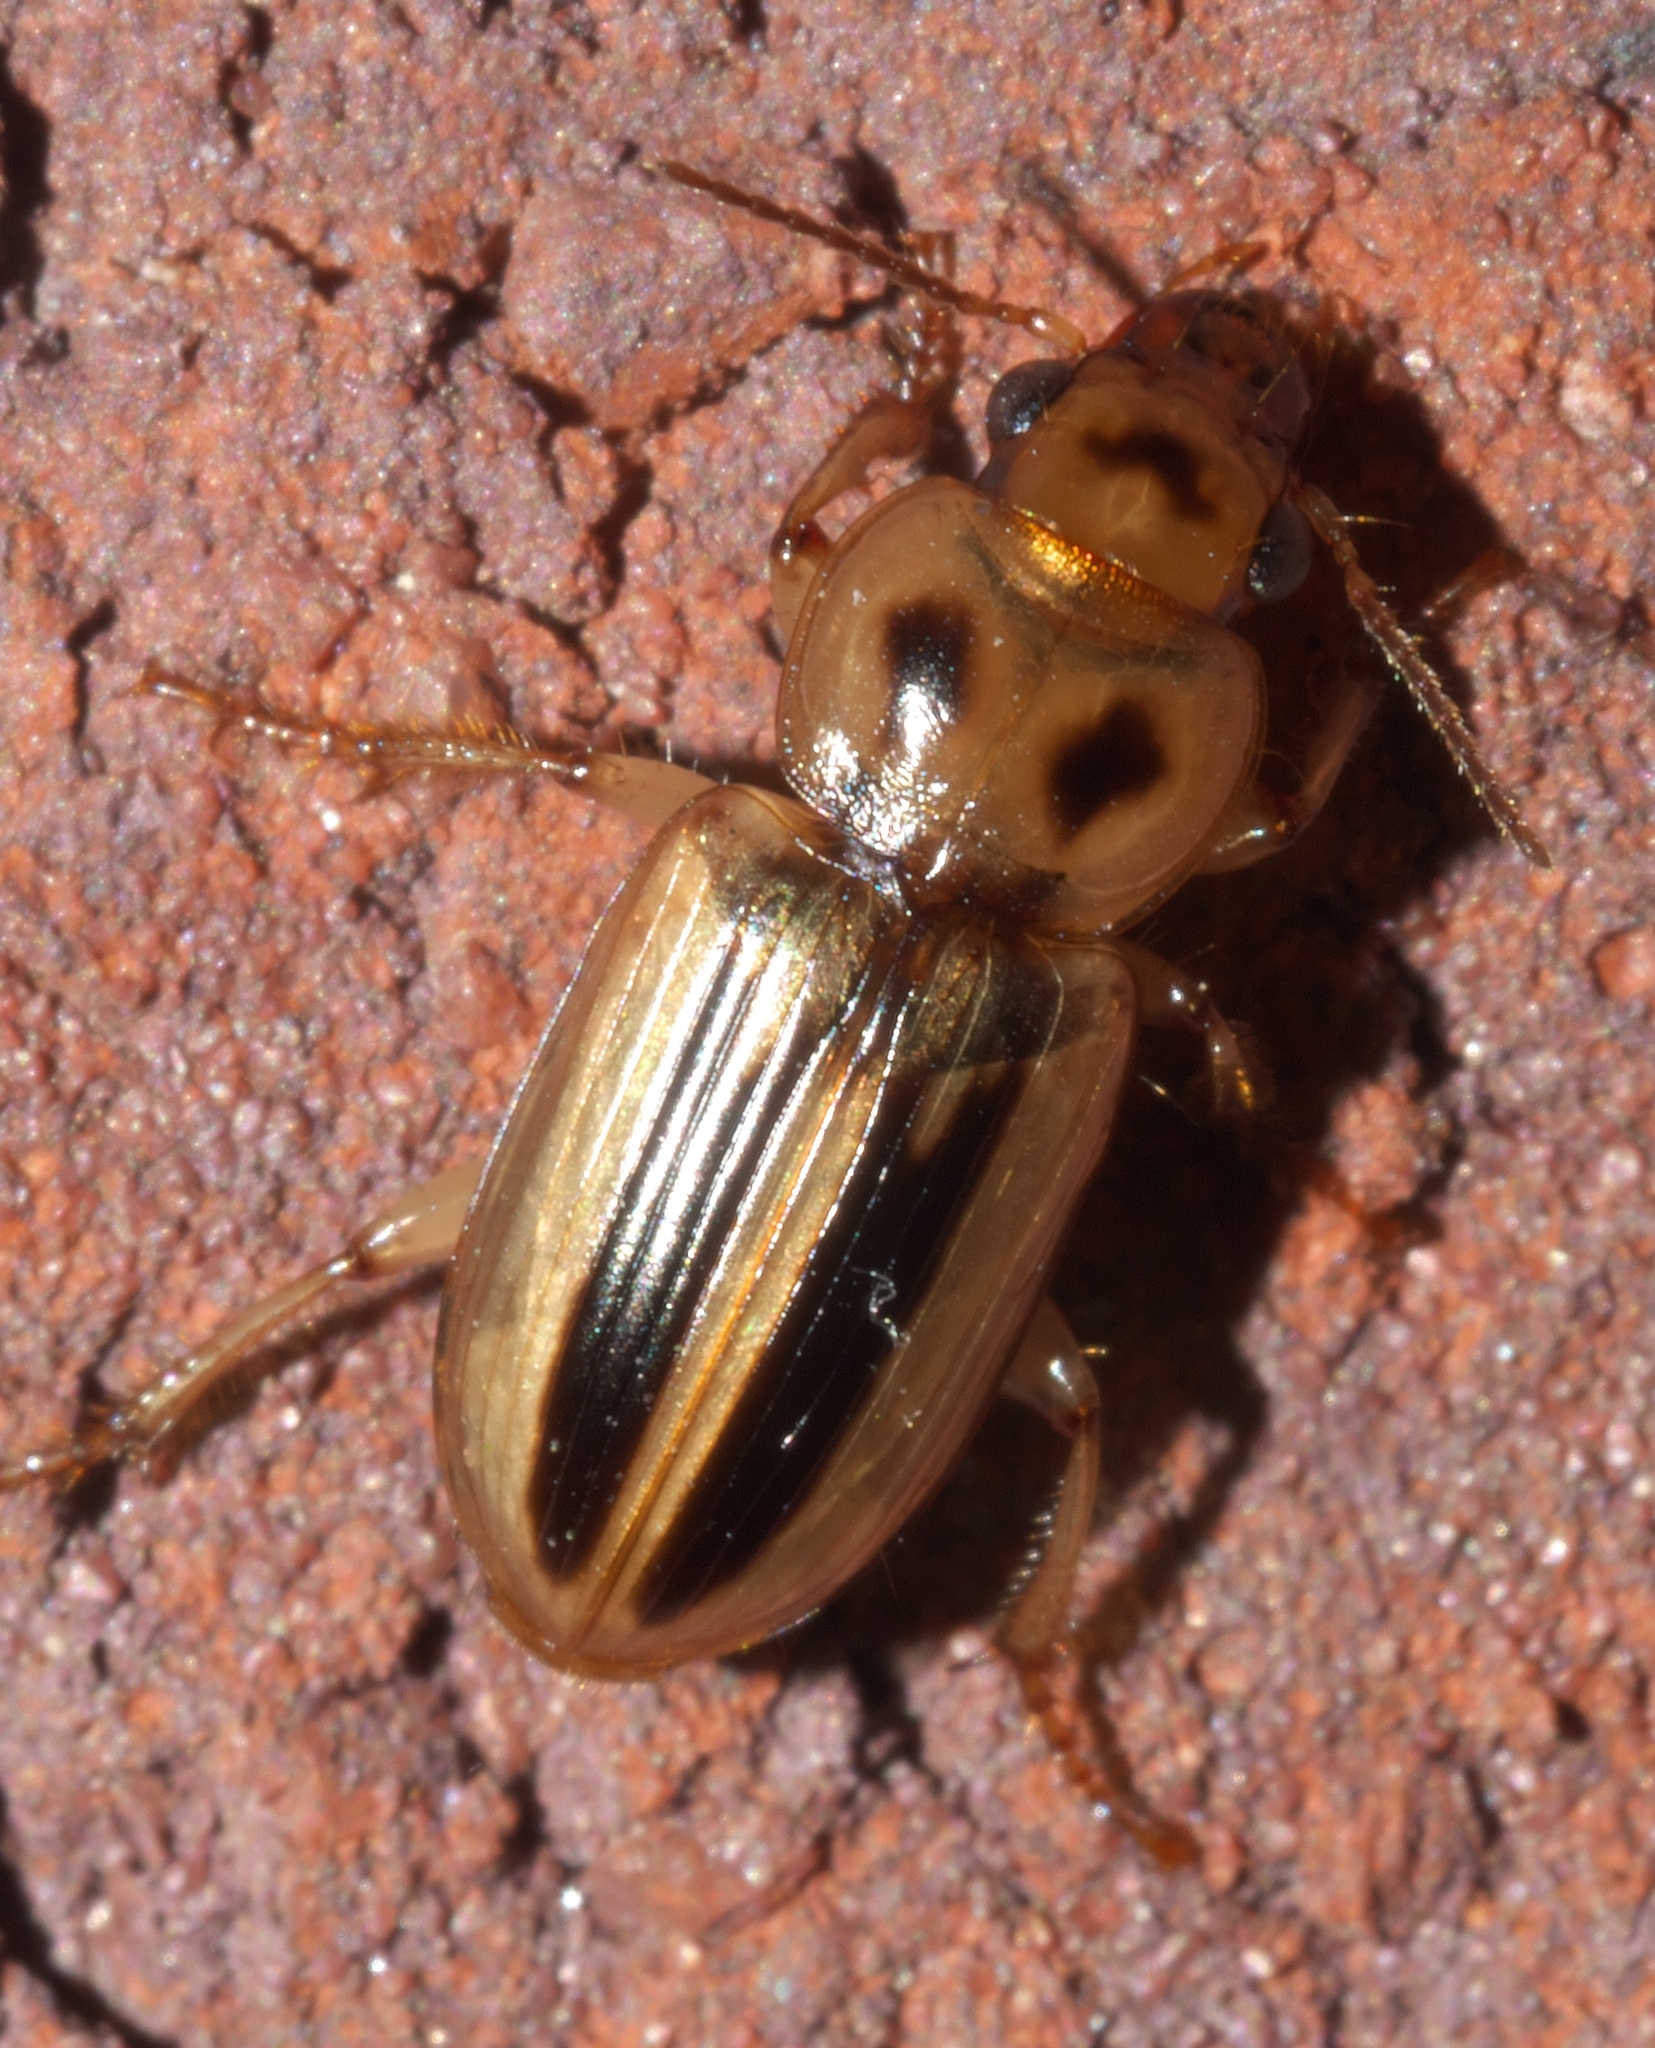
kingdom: Animalia
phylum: Arthropoda
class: Insecta
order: Coleoptera
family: Carabidae
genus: Semiardistomis
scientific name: Semiardistomis viridis
